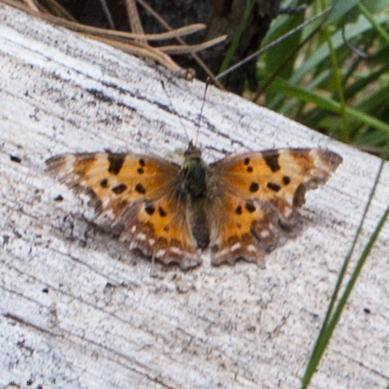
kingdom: Animalia
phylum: Arthropoda
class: Insecta
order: Lepidoptera
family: Nymphalidae
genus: Polygonia
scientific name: Polygonia faunus
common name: Green comma
